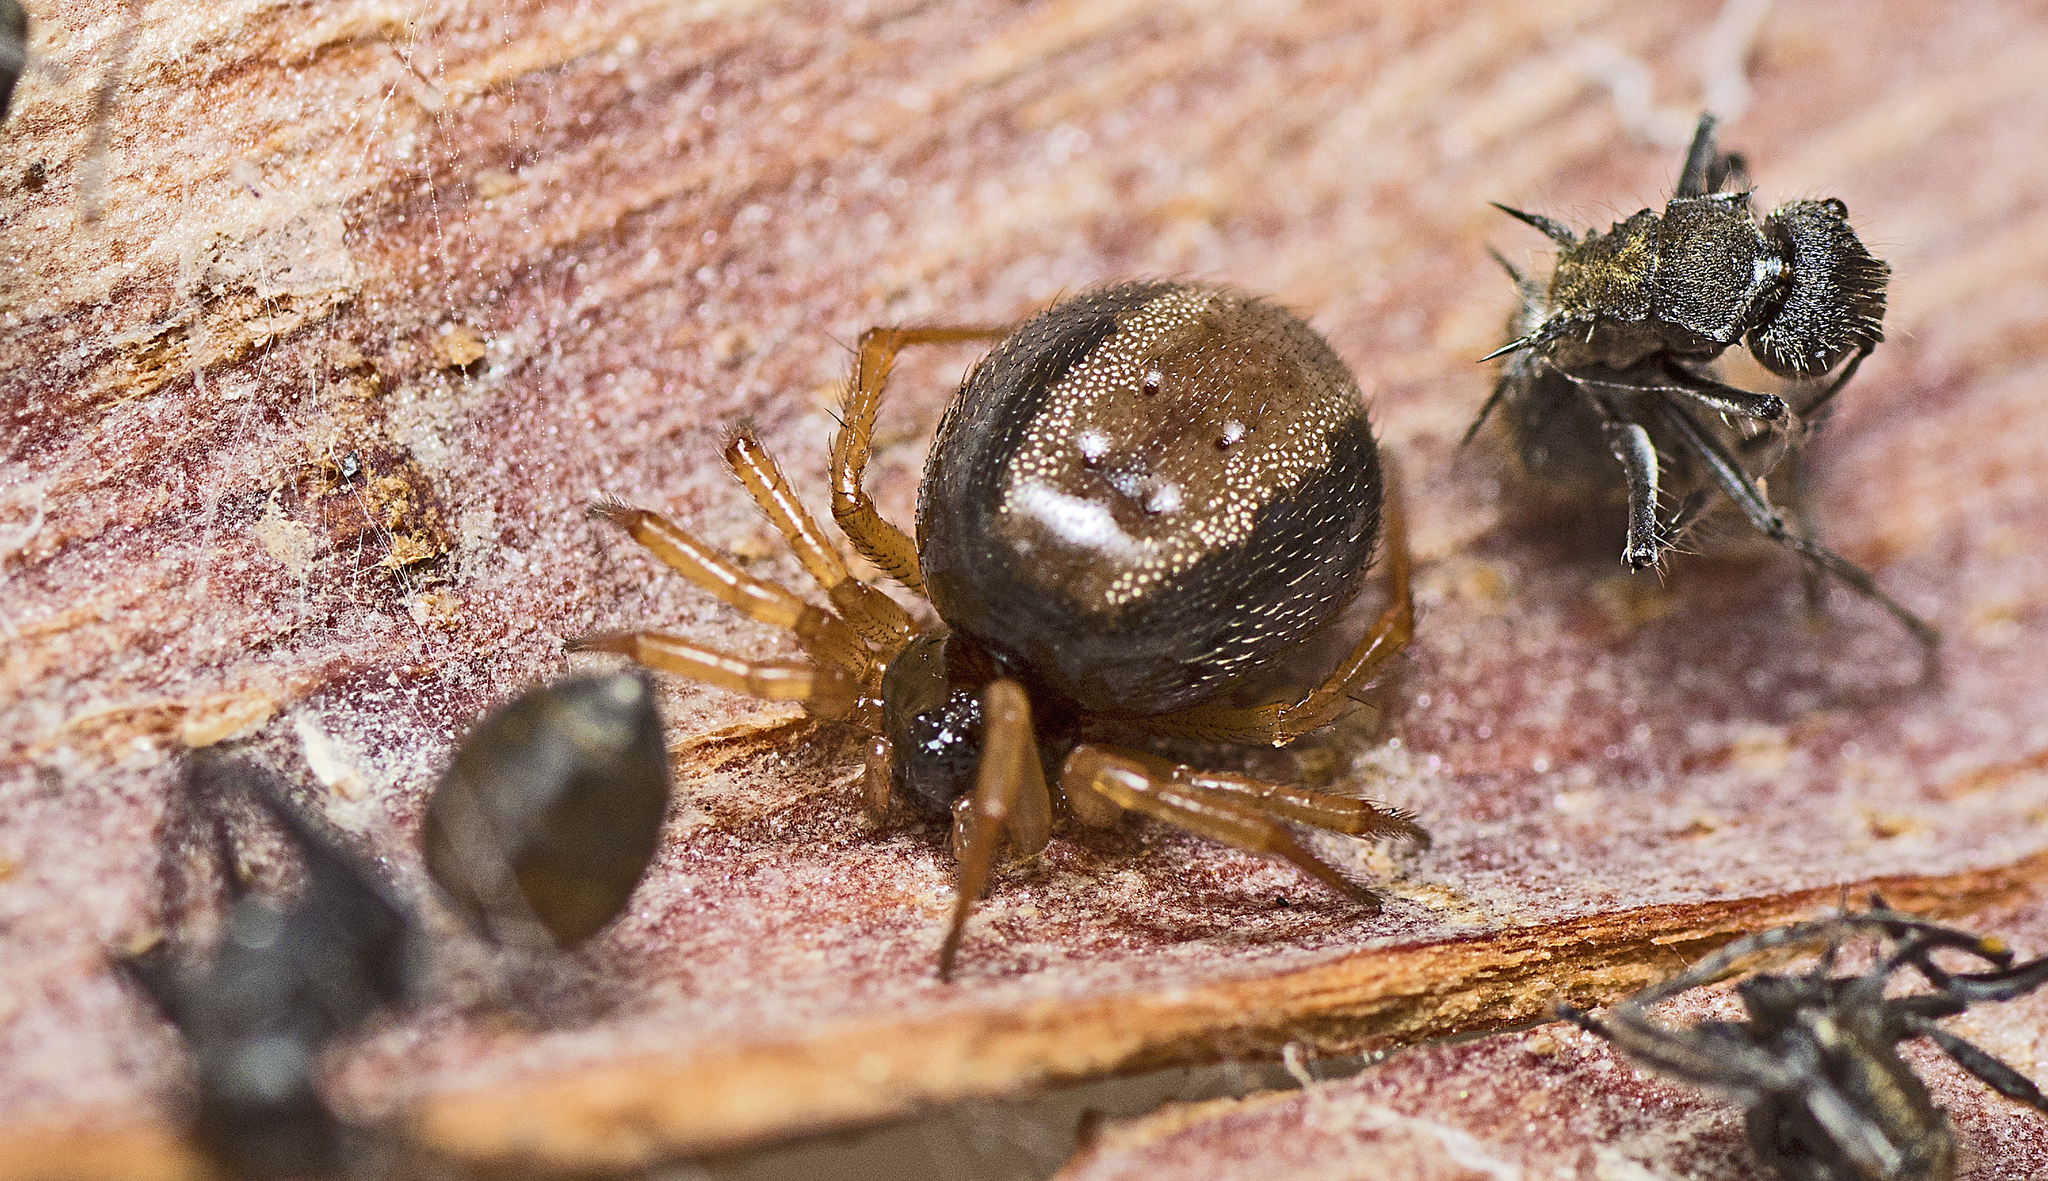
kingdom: Animalia
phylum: Arthropoda
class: Arachnida
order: Araneae
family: Theridiidae
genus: Euryopis
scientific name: Euryopis umbilicata
